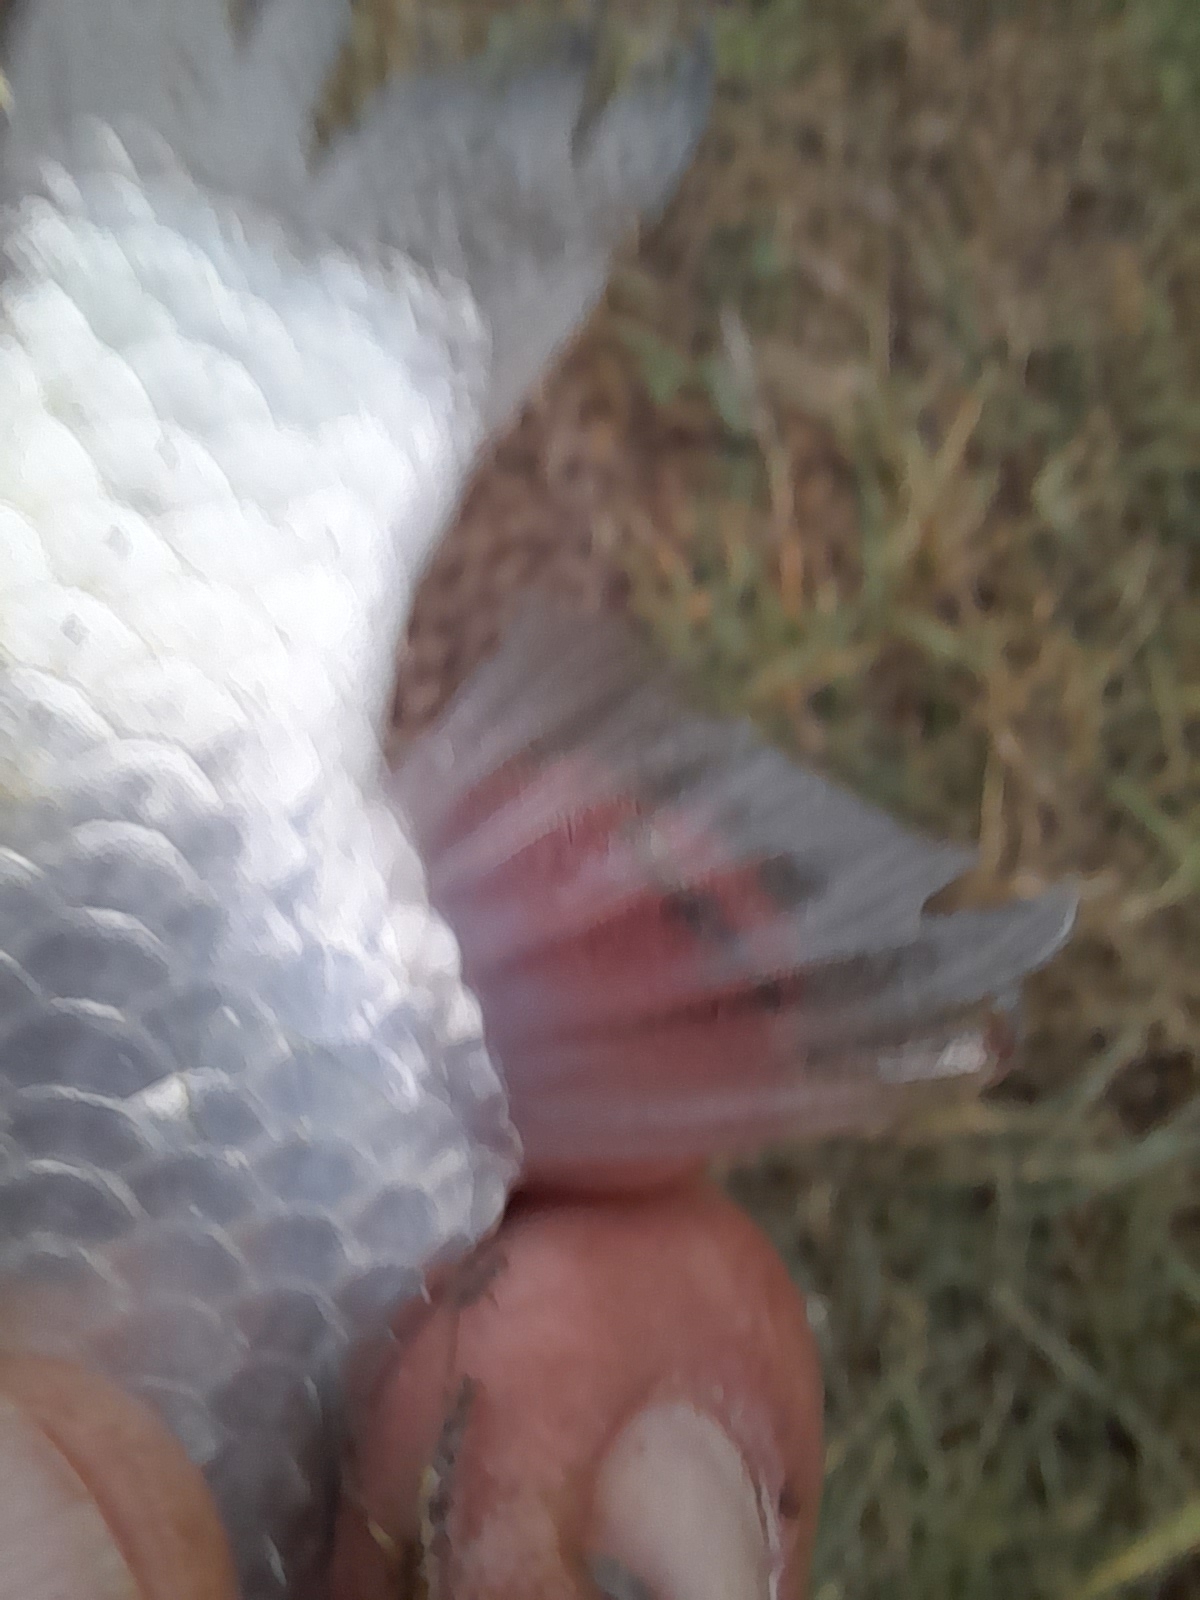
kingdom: Animalia
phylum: Chordata
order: Cypriniformes
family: Cyprinidae
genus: Carassius
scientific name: Carassius gibelio
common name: Prussian carp
